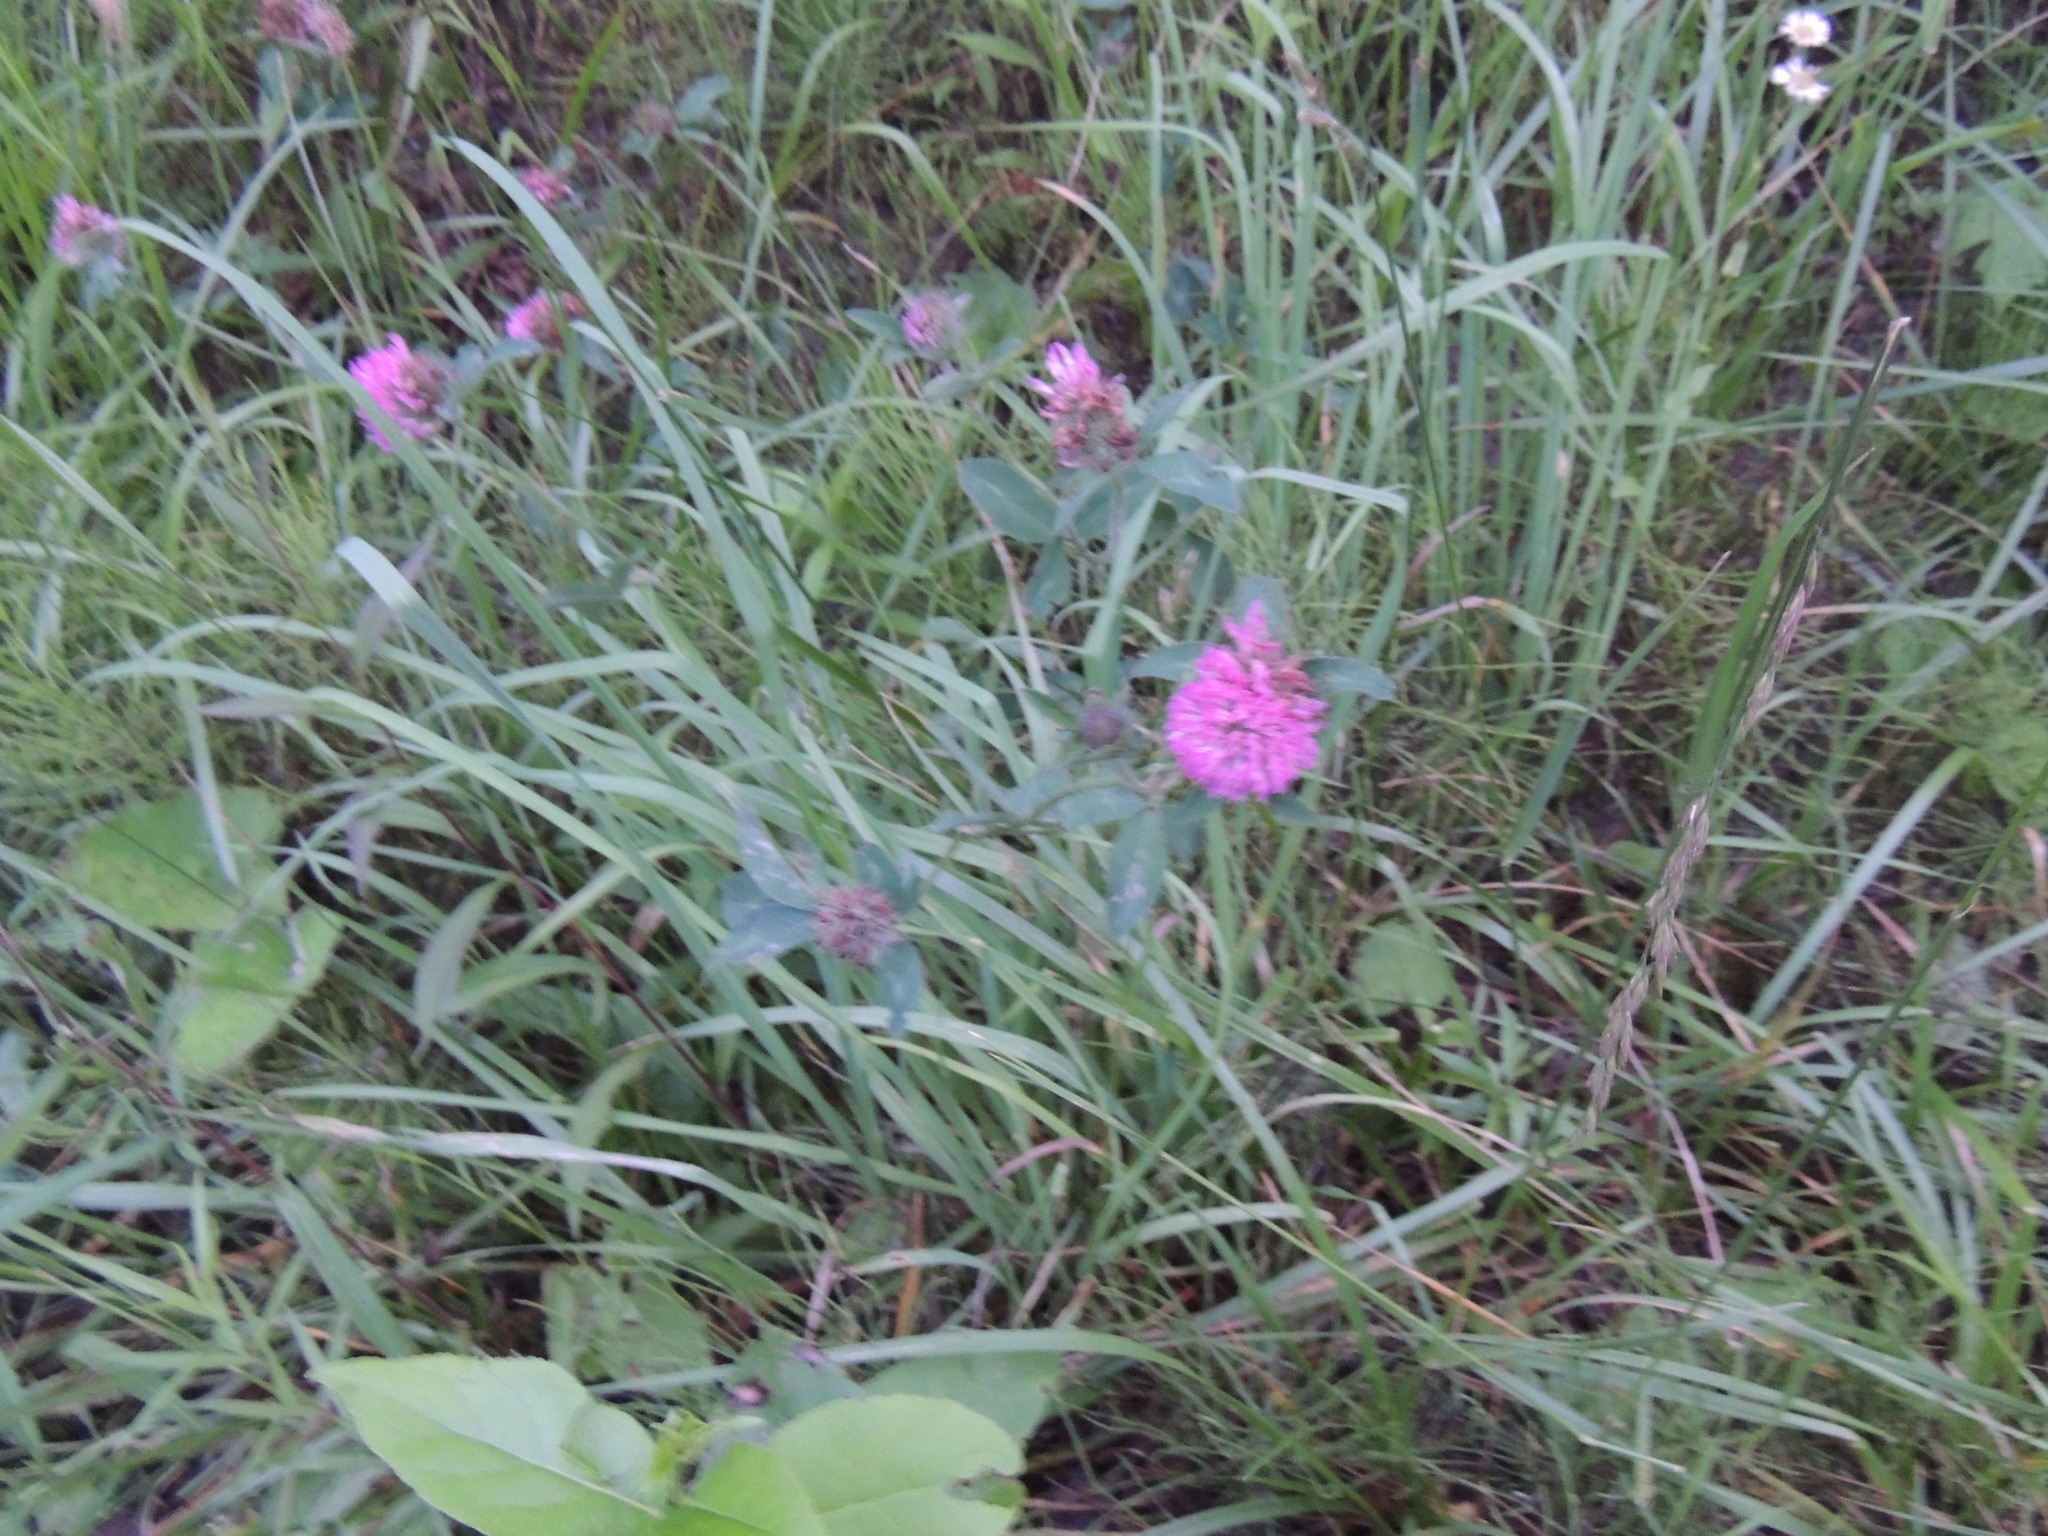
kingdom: Plantae
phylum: Tracheophyta
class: Magnoliopsida
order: Fabales
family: Fabaceae
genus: Trifolium
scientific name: Trifolium pratense
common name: Red clover
